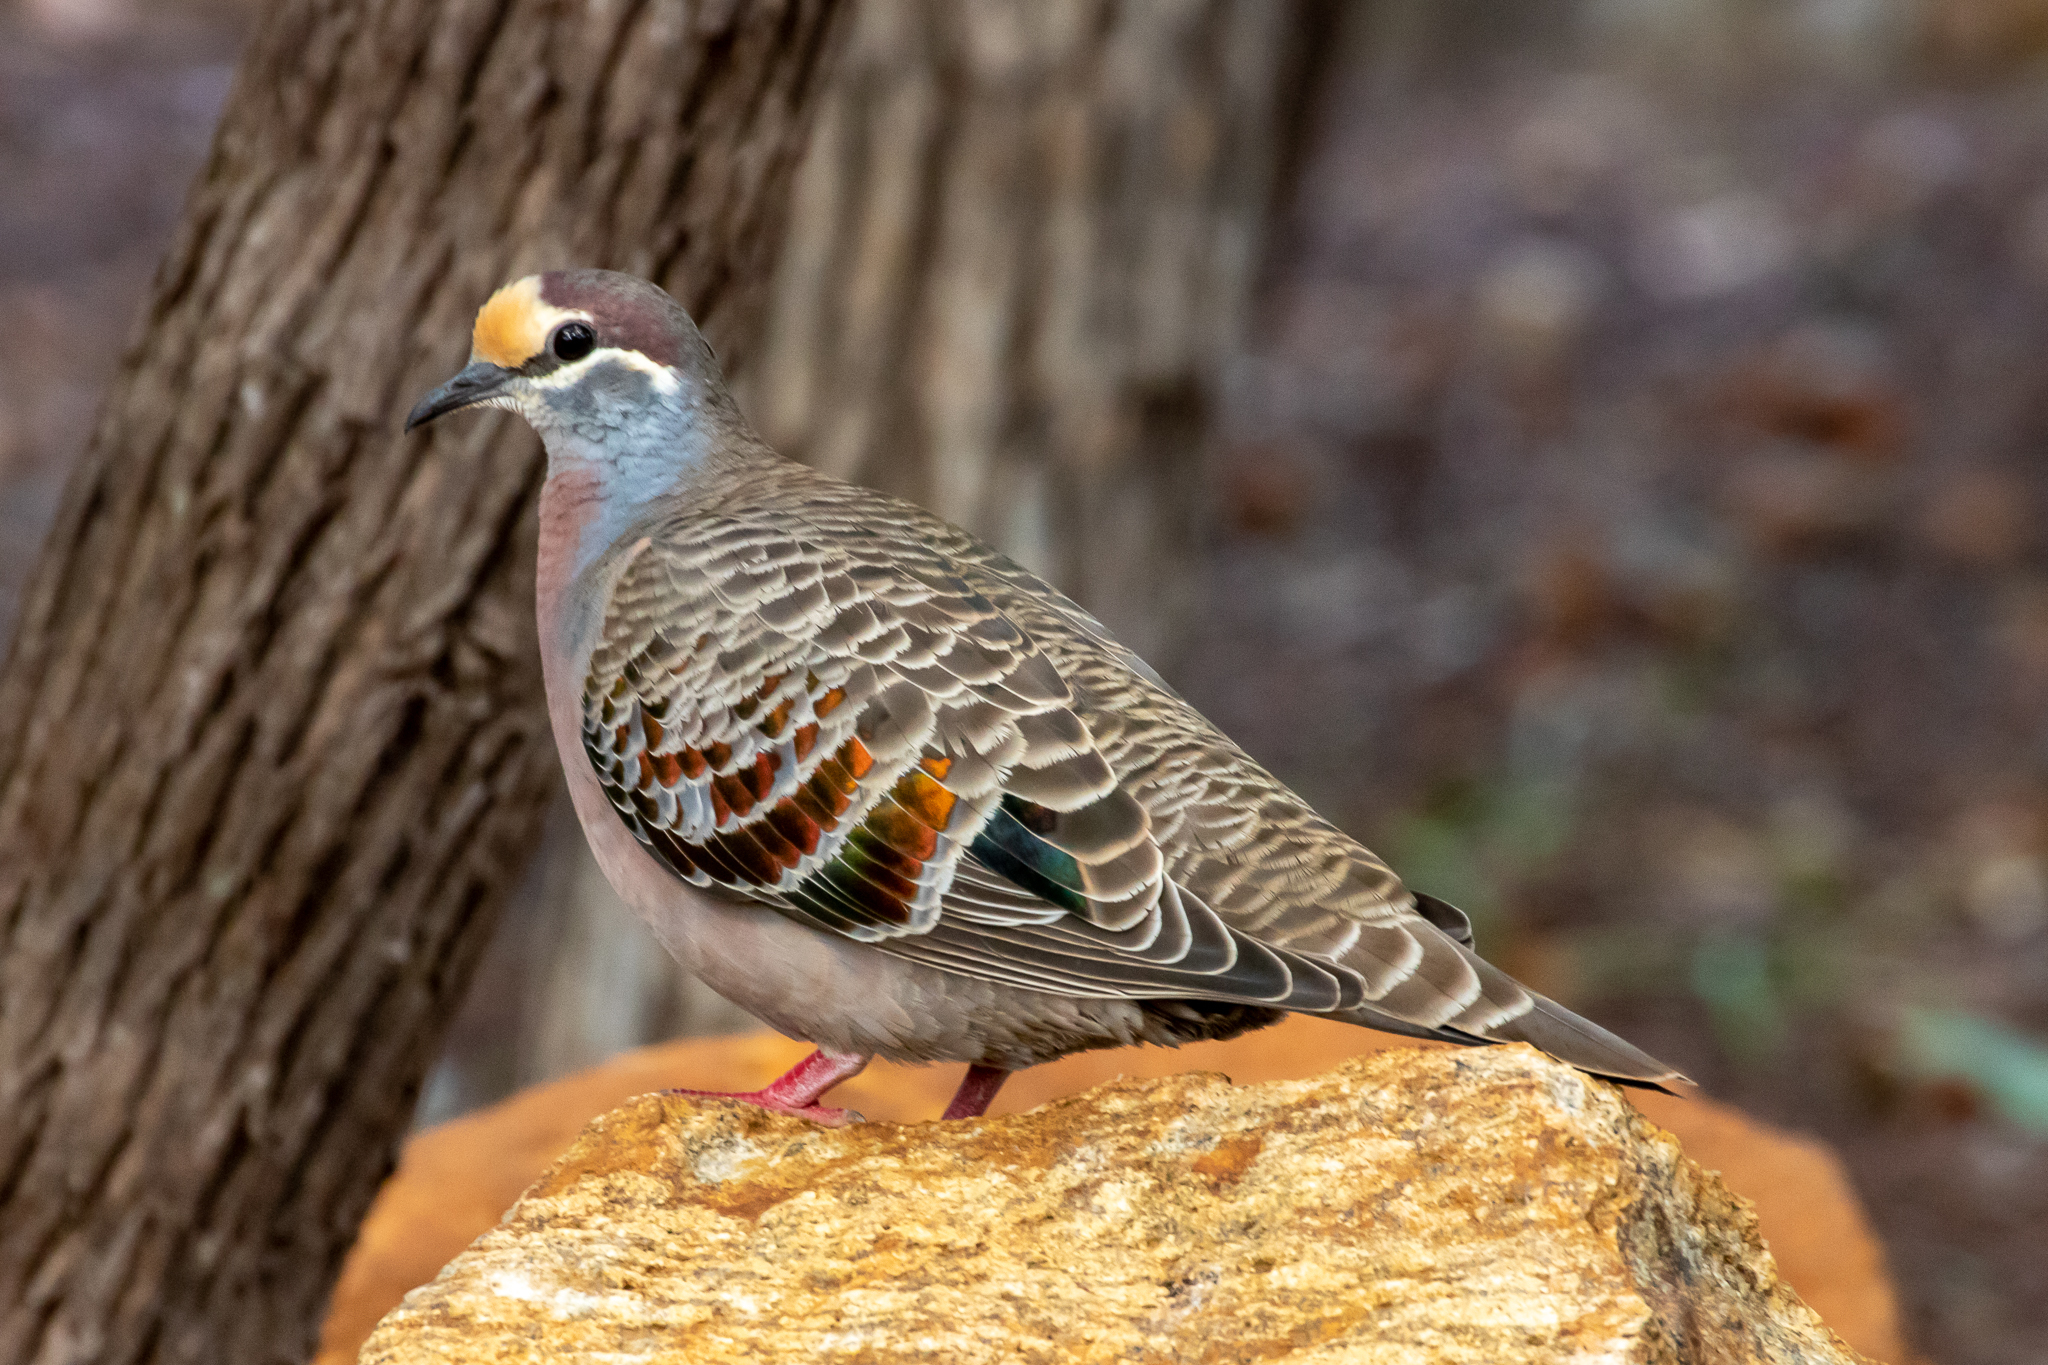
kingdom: Animalia
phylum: Chordata
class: Aves
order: Columbiformes
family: Columbidae
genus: Phaps
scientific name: Phaps chalcoptera
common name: Common bronzewing
